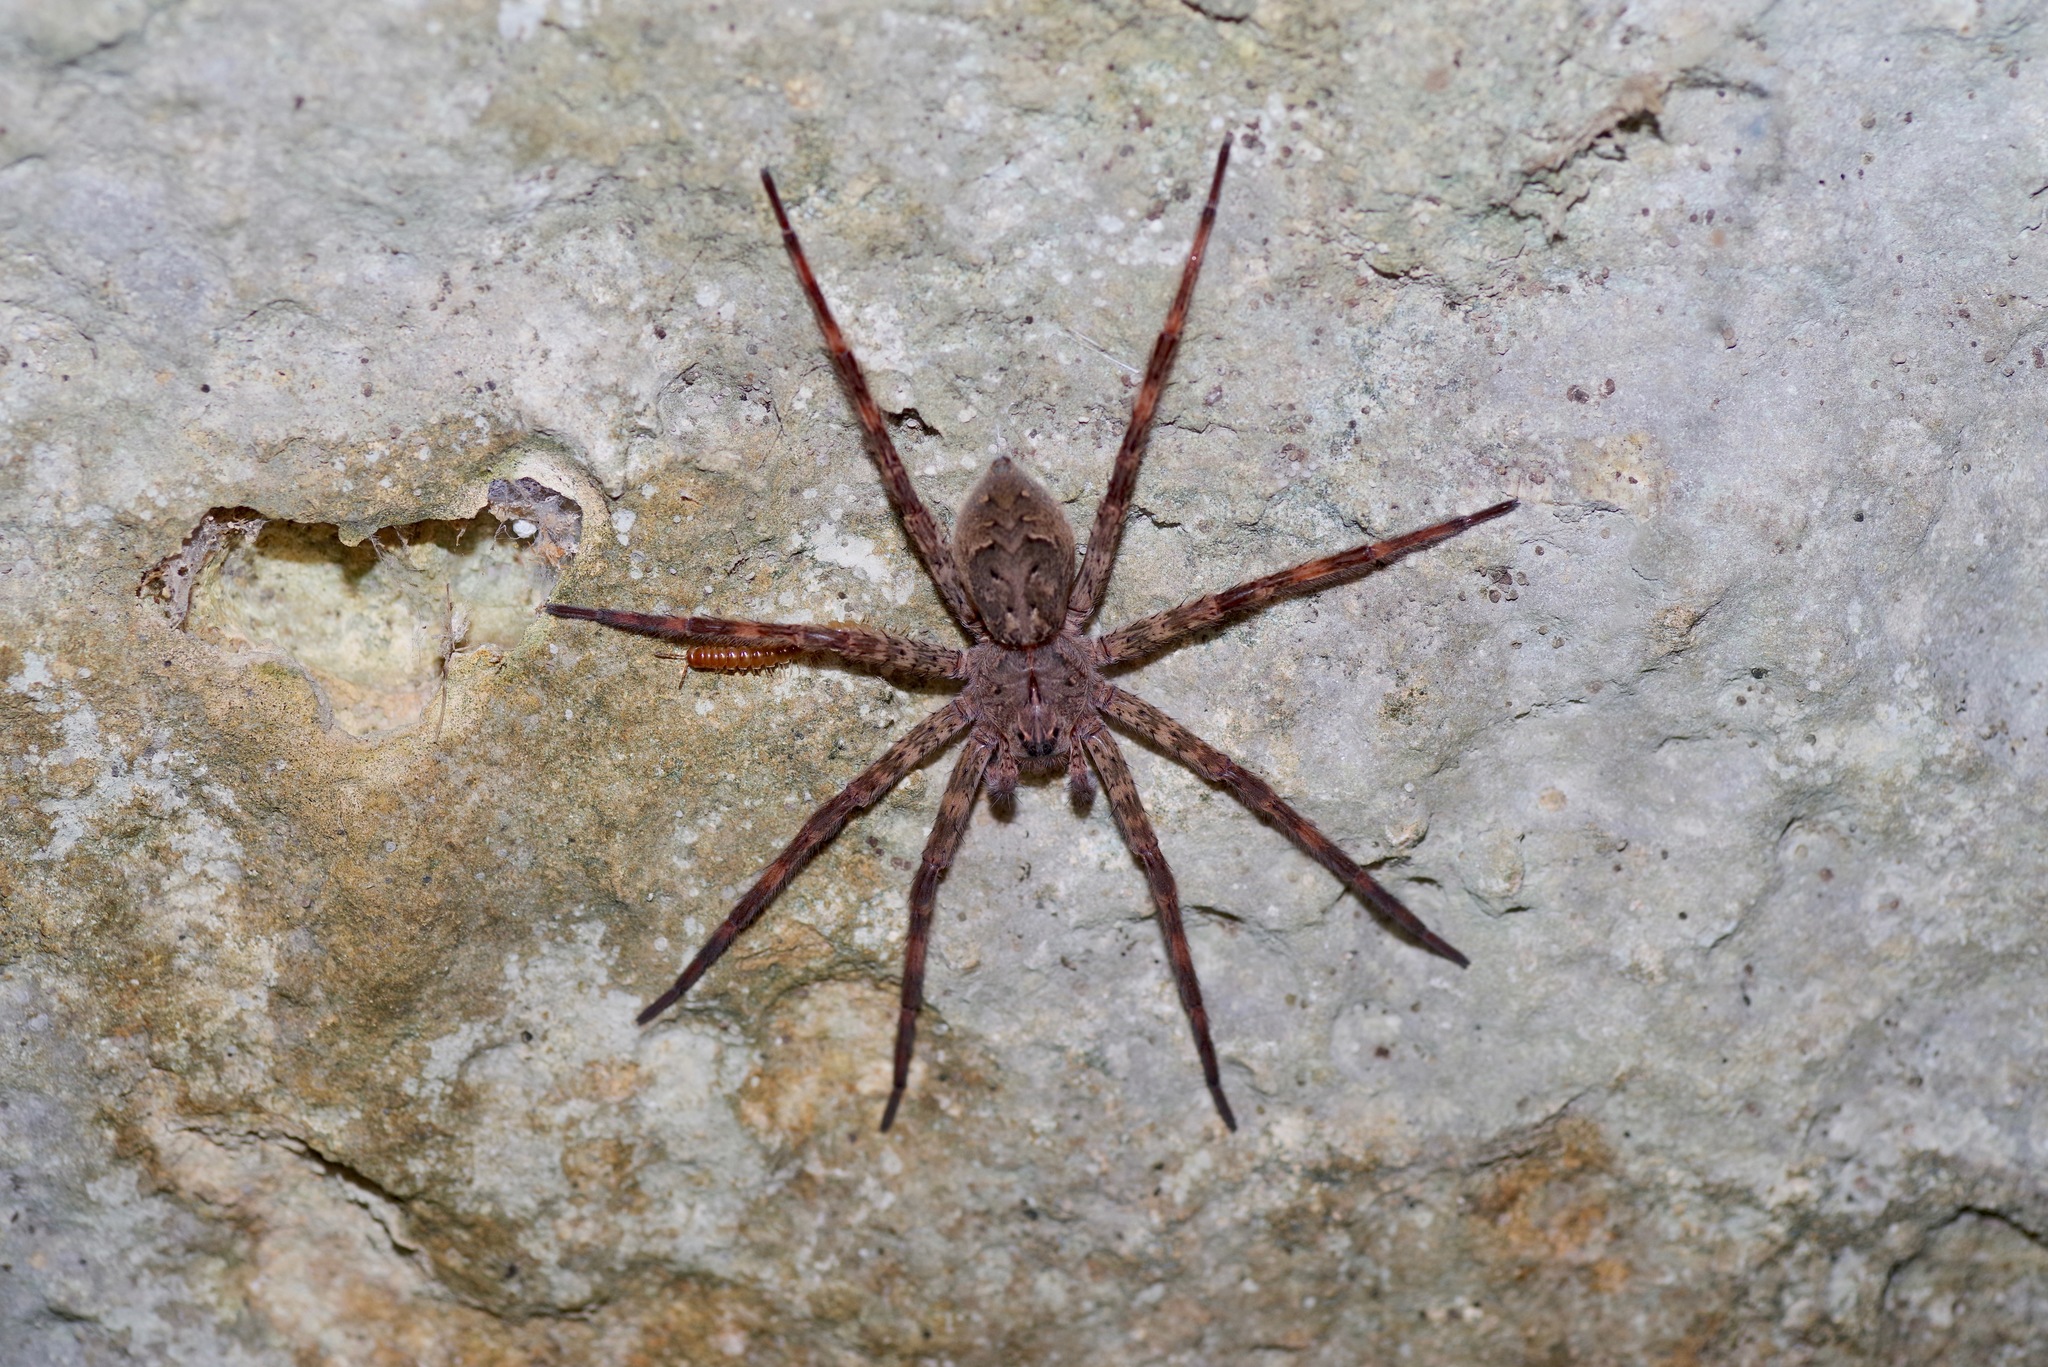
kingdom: Animalia
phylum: Arthropoda
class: Arachnida
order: Araneae
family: Pisauridae
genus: Dolomedes
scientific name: Dolomedes tenebrosus
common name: Dark fishing spider
